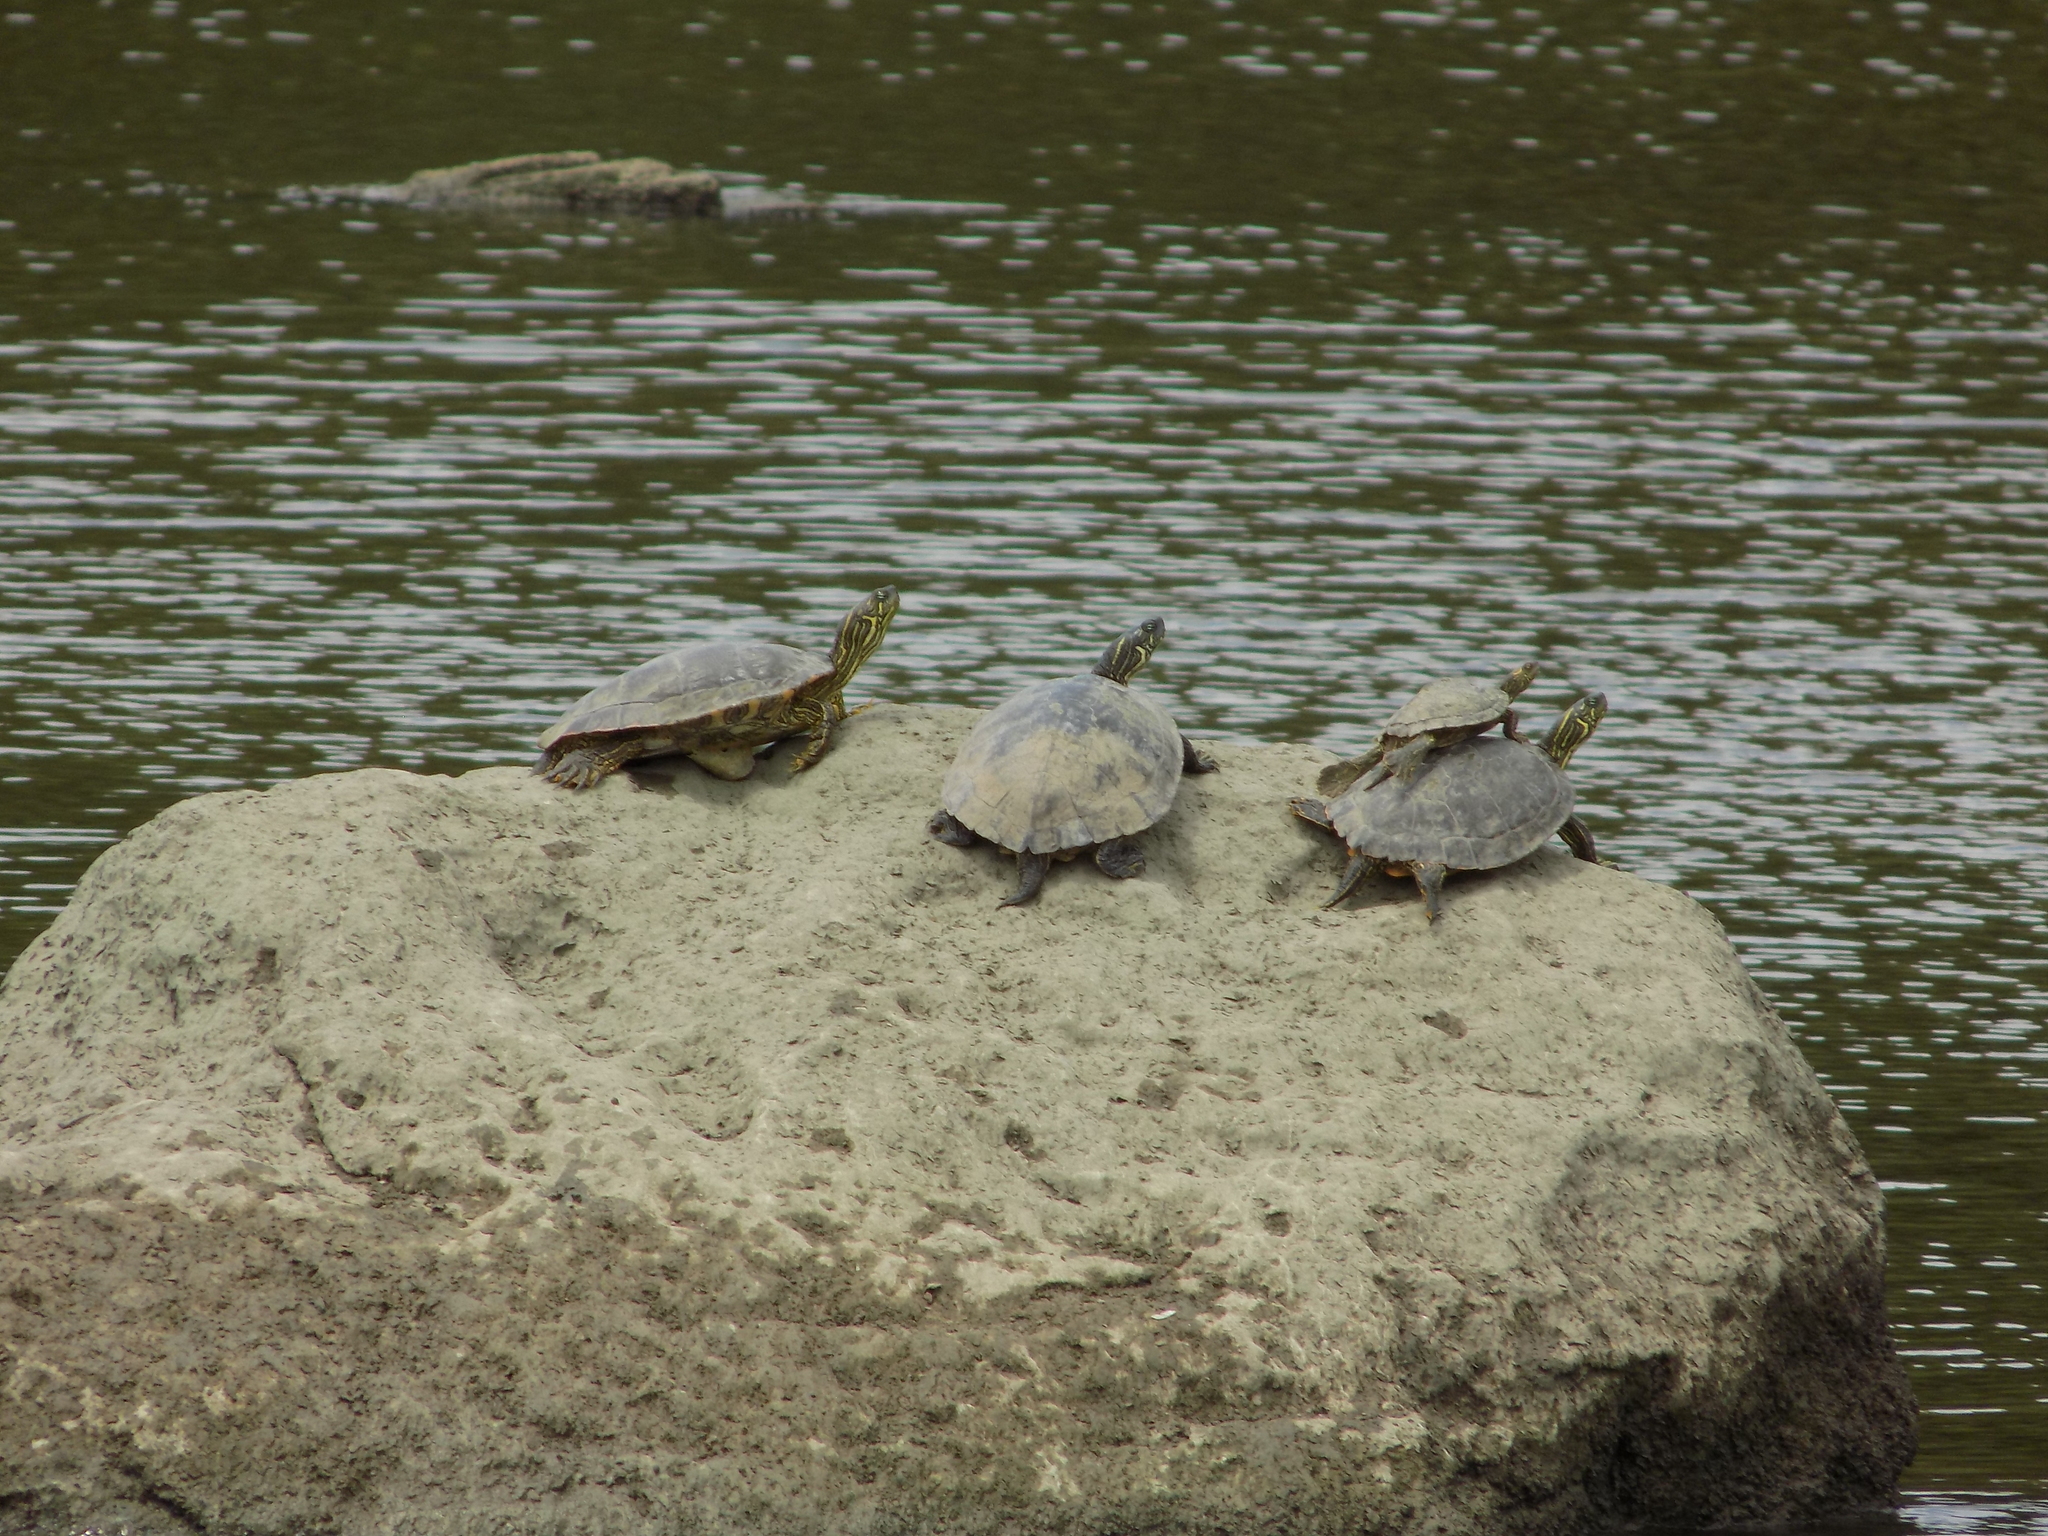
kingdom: Animalia
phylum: Chordata
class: Testudines
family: Emydidae
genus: Pseudemys
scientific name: Pseudemys texana
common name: Texas river cooter
